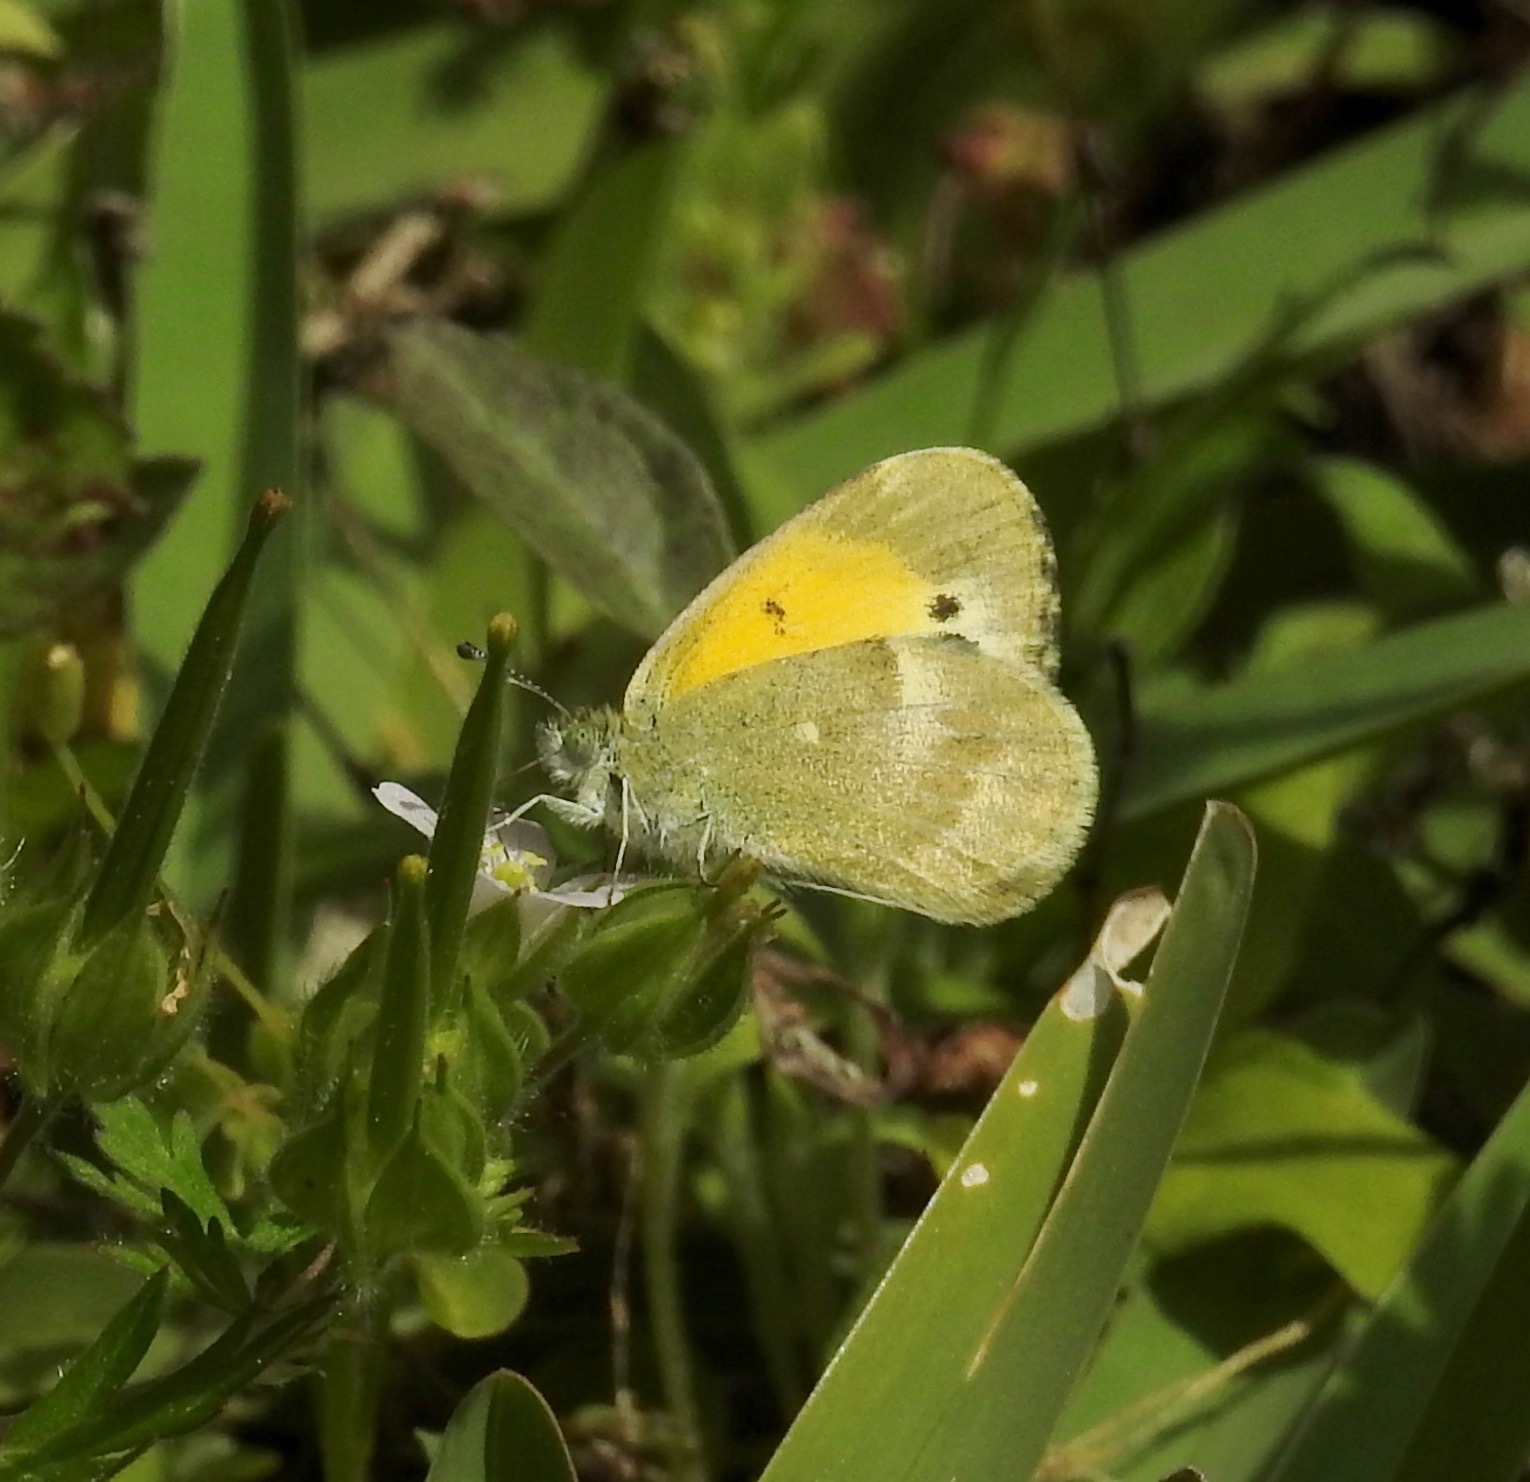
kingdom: Animalia
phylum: Arthropoda
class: Insecta
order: Lepidoptera
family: Pieridae
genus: Nathalis
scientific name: Nathalis iole
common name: Dainty sulphur
